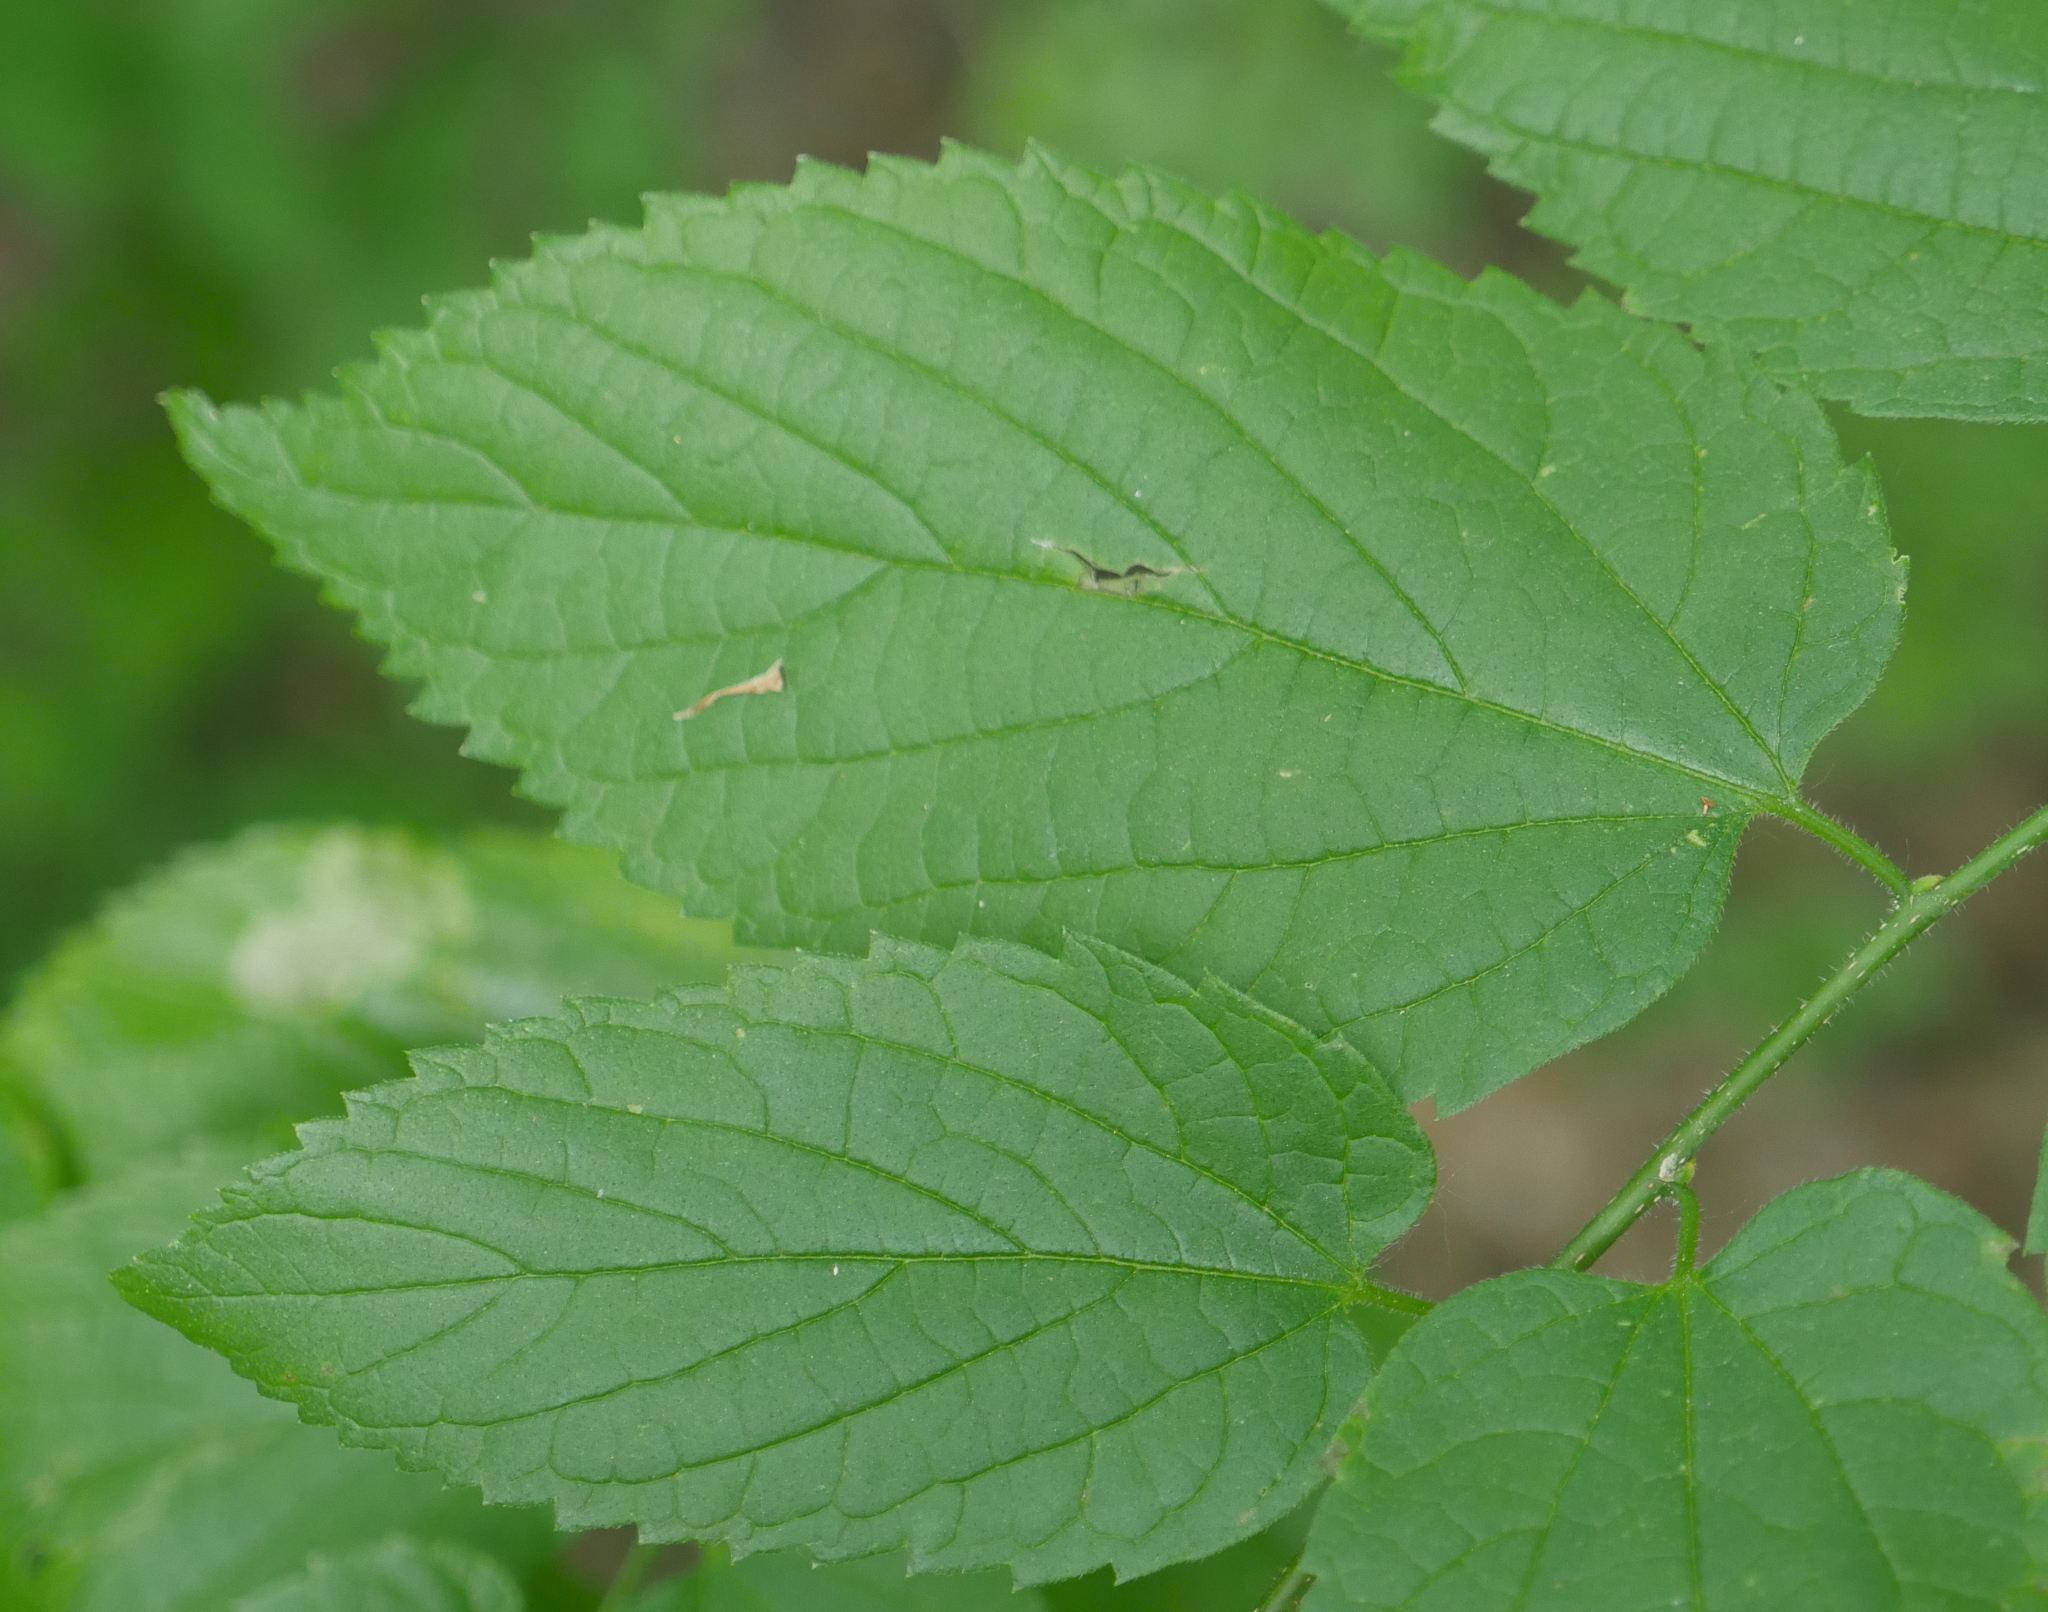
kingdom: Plantae
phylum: Tracheophyta
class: Magnoliopsida
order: Rosales
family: Cannabaceae
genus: Celtis
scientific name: Celtis occidentalis
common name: Common hackberry
